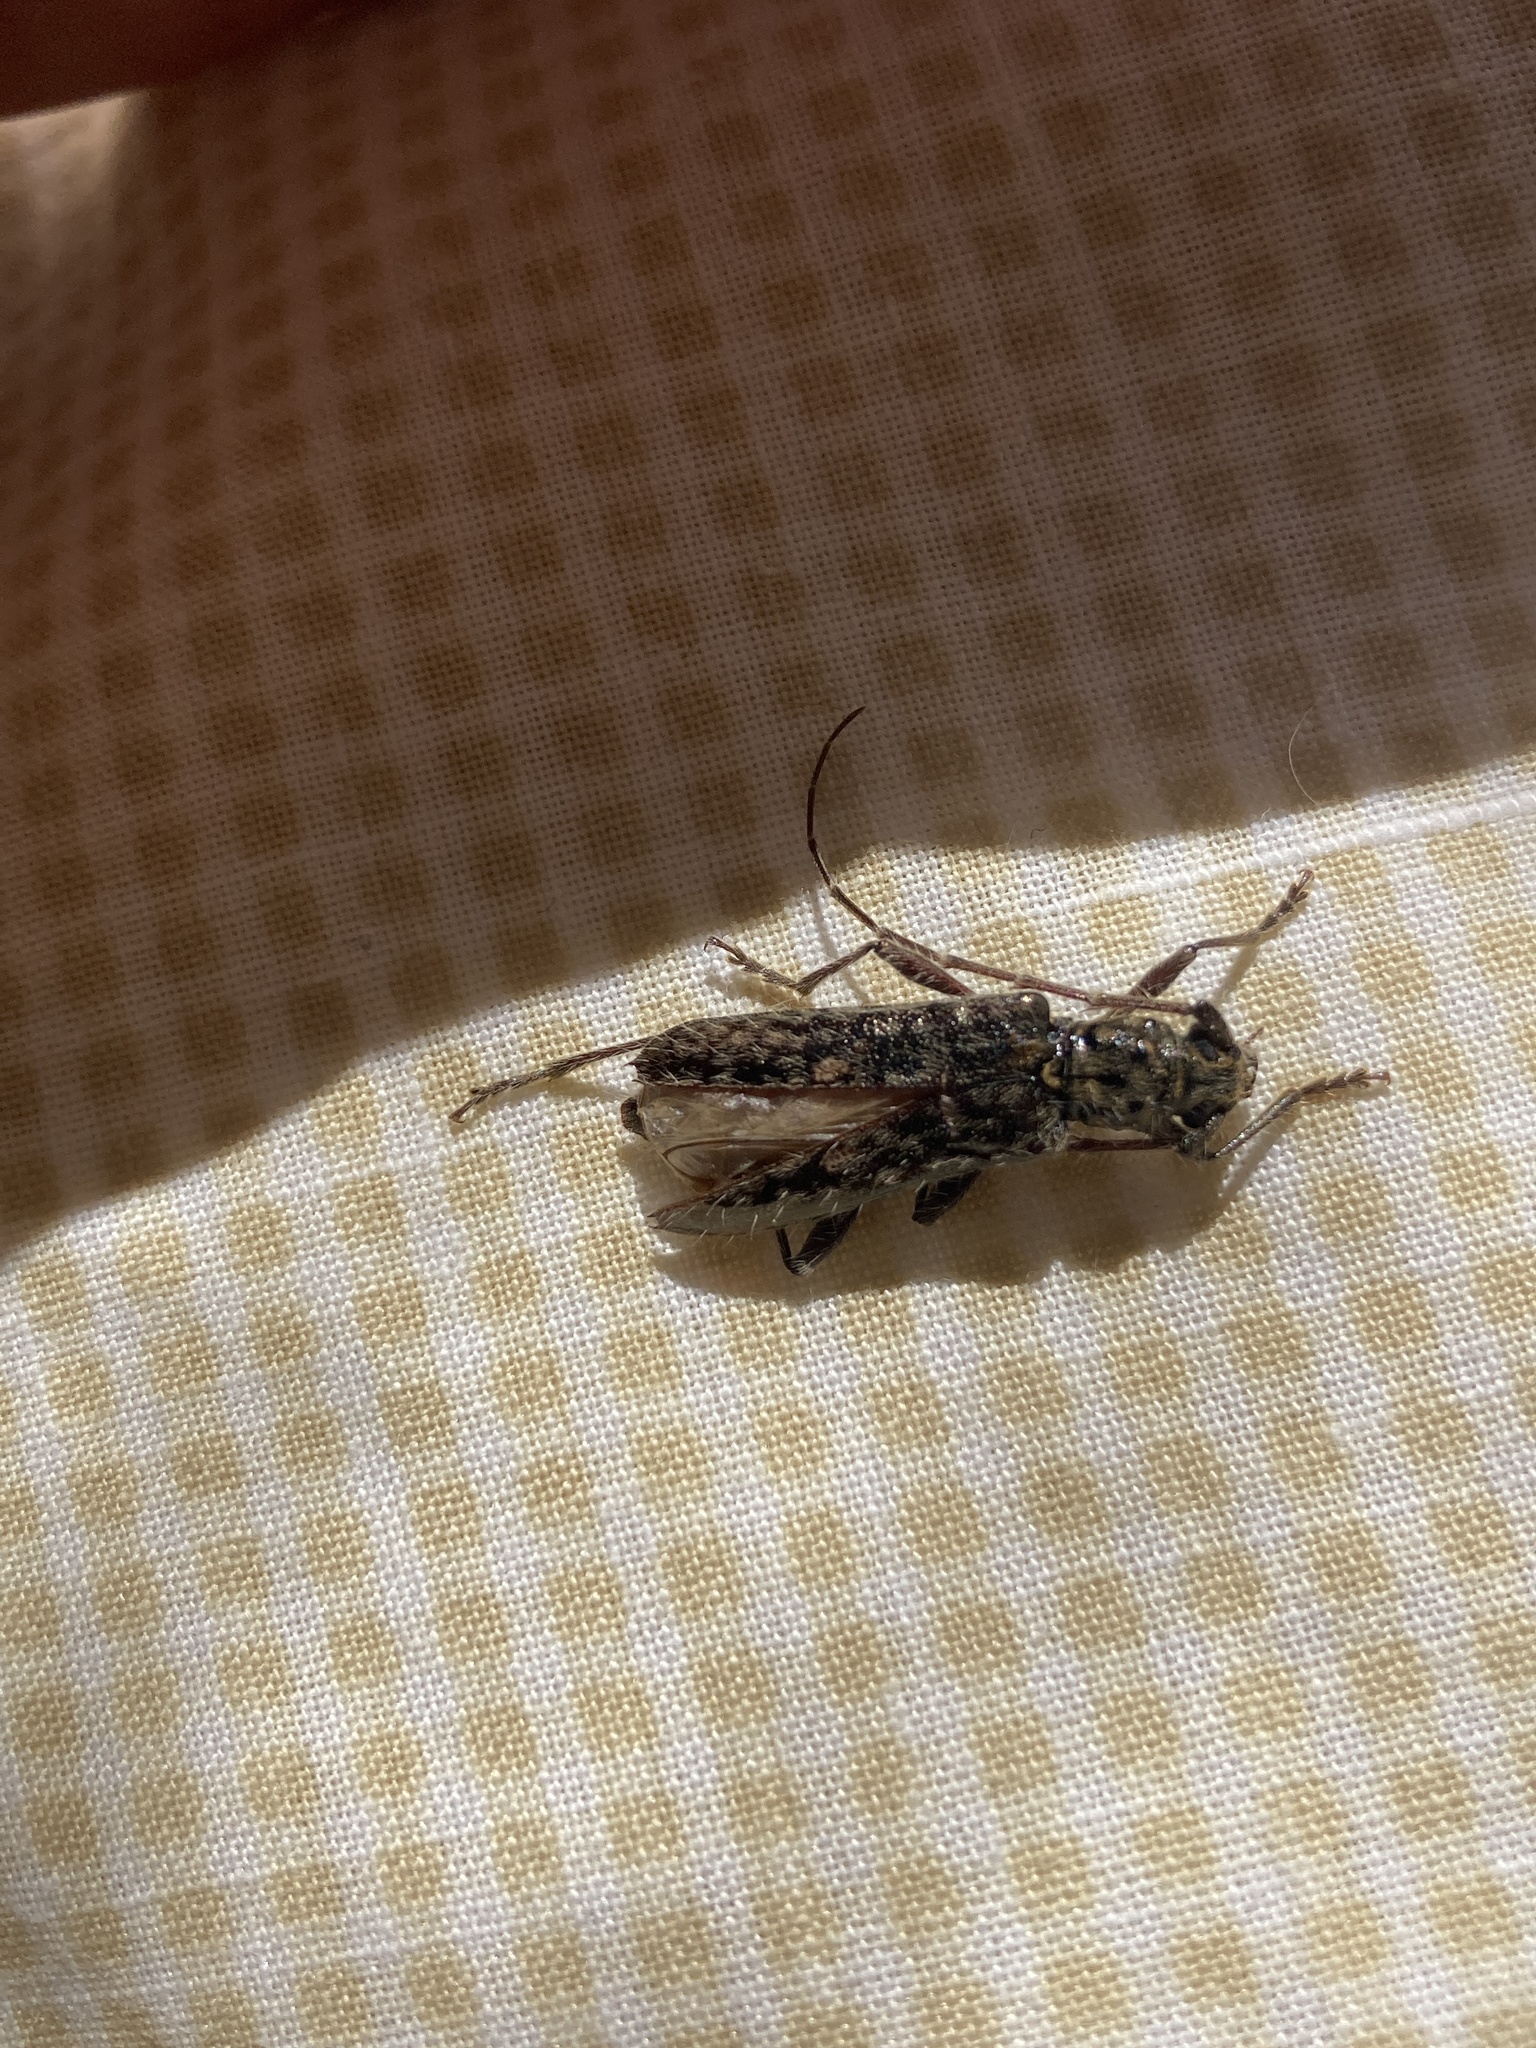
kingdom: Animalia
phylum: Arthropoda
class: Insecta
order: Coleoptera
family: Cerambycidae
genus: Eurysthea
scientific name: Eurysthea hirca
